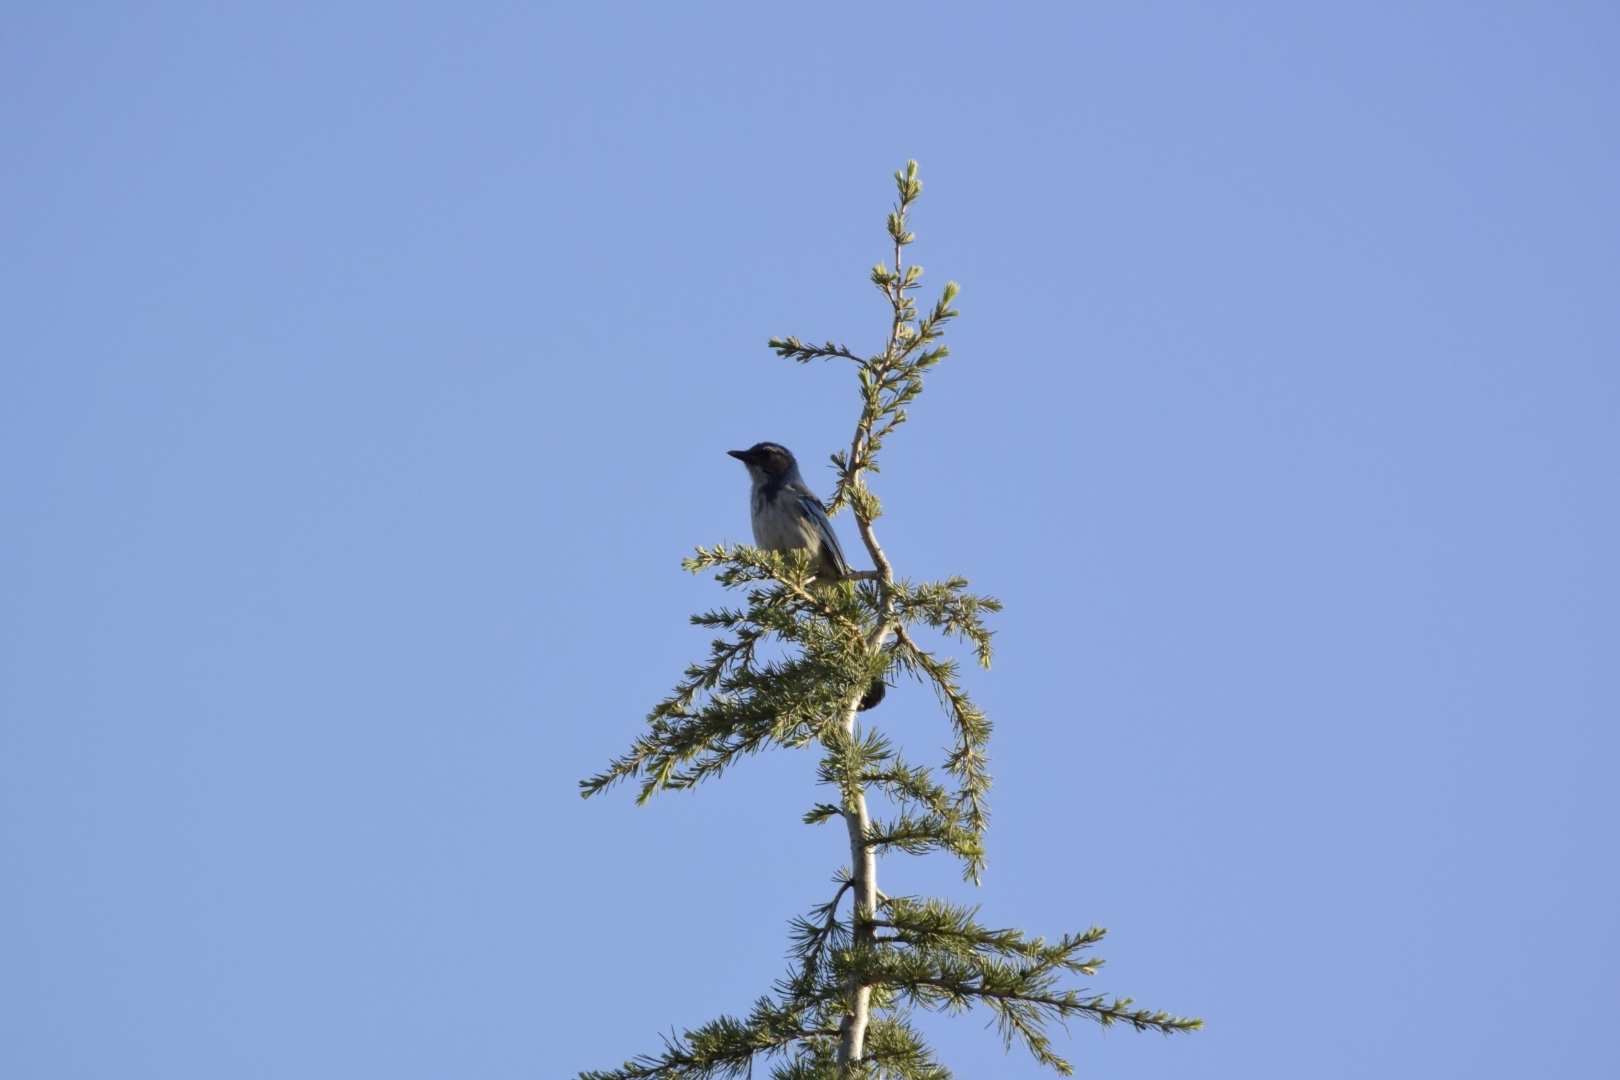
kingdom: Animalia
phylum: Chordata
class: Aves
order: Passeriformes
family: Corvidae
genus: Aphelocoma
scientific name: Aphelocoma californica
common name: California scrub-jay
